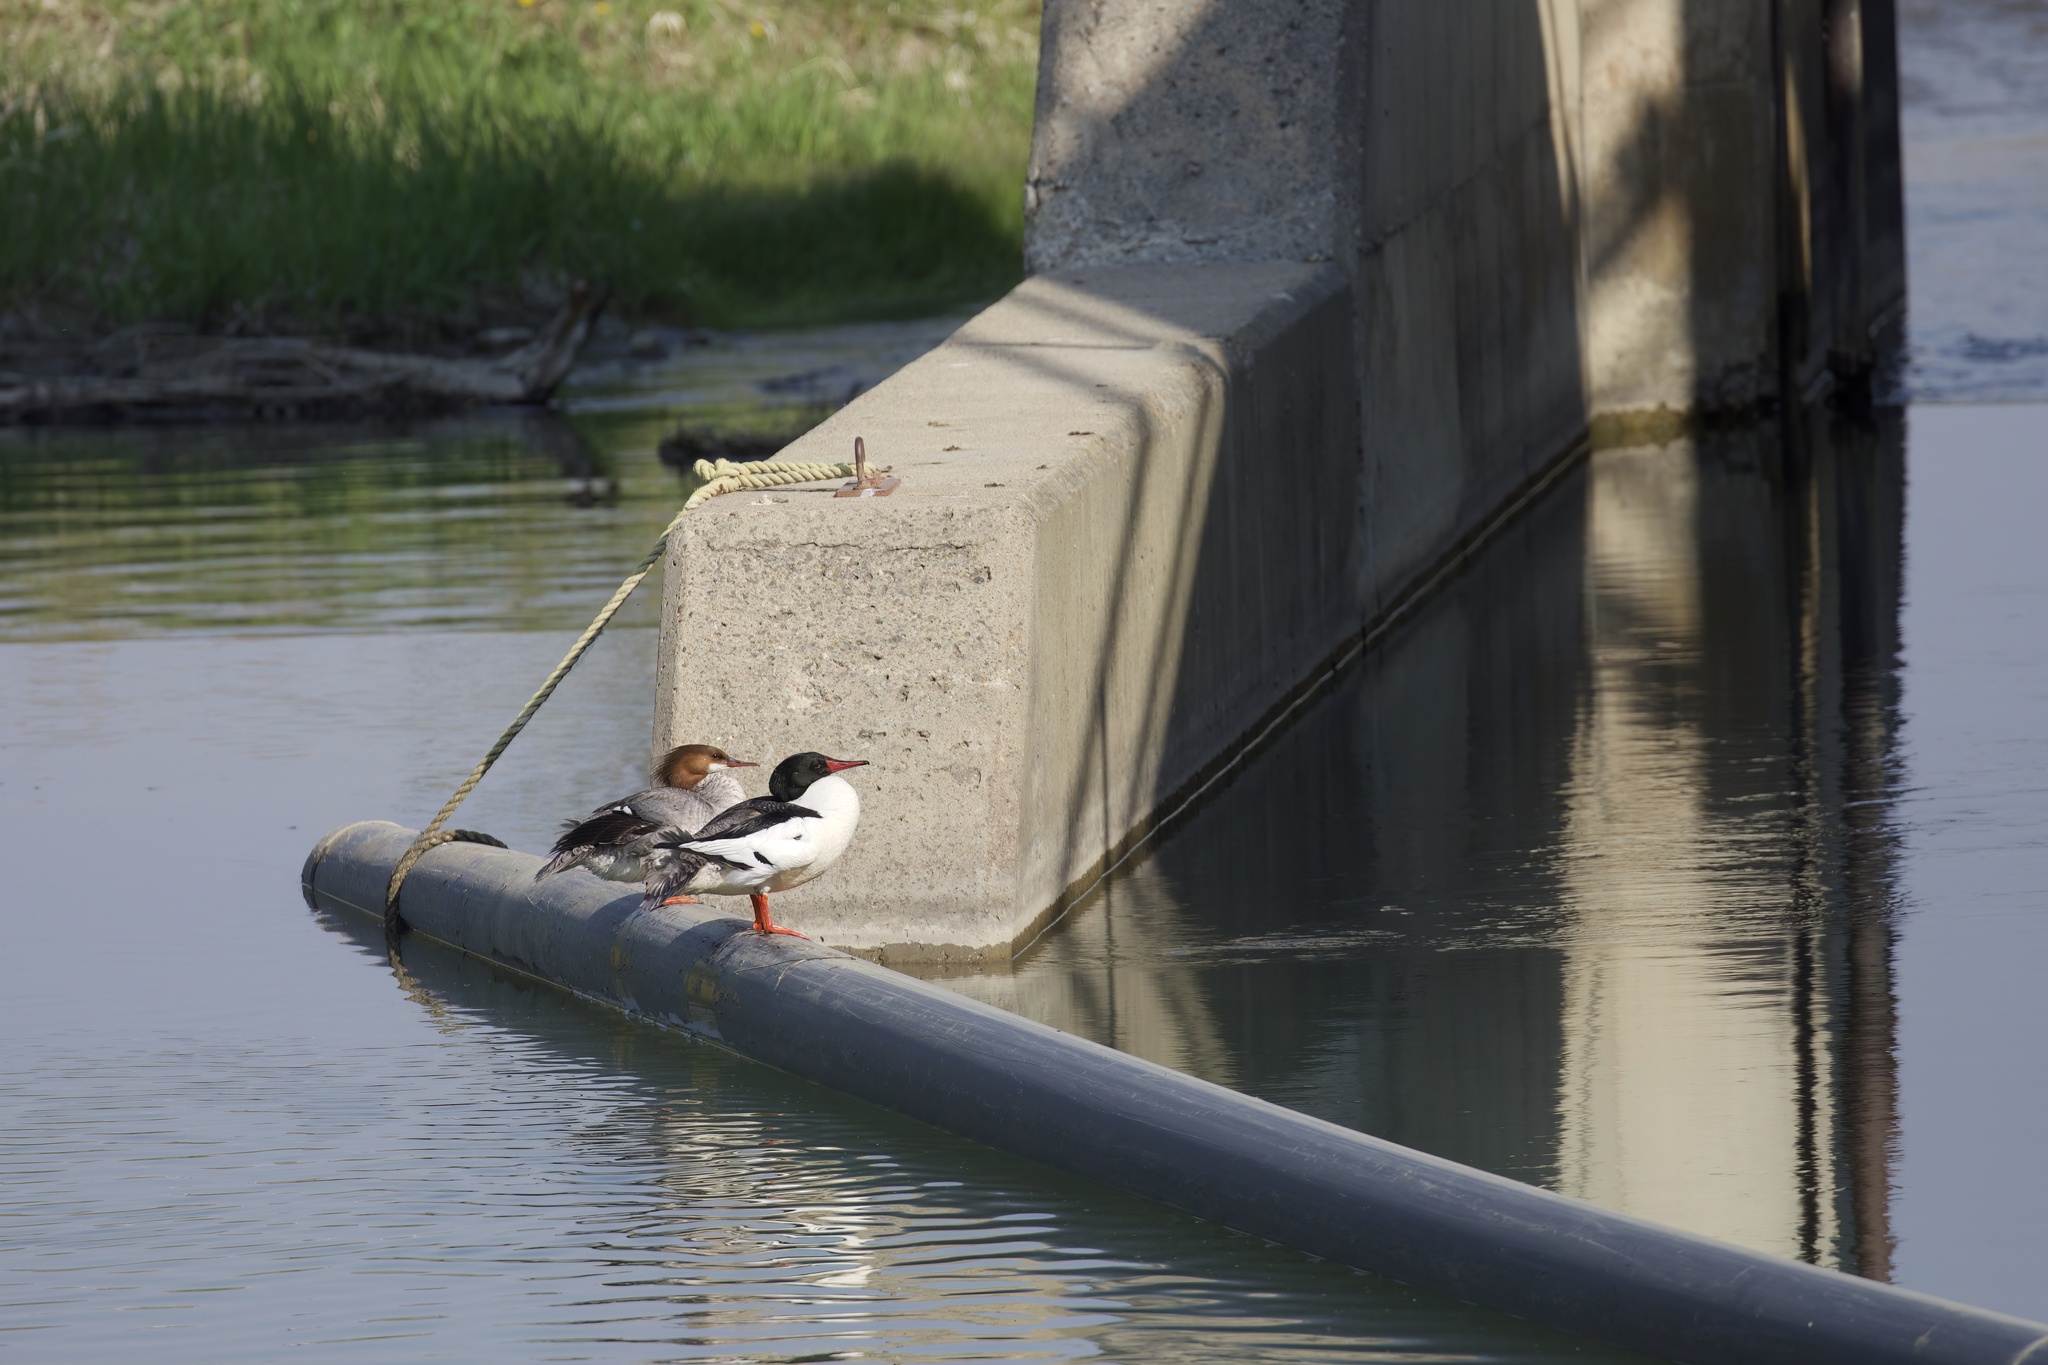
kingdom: Animalia
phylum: Chordata
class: Aves
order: Anseriformes
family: Anatidae
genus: Mergus
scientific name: Mergus merganser
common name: Common merganser
